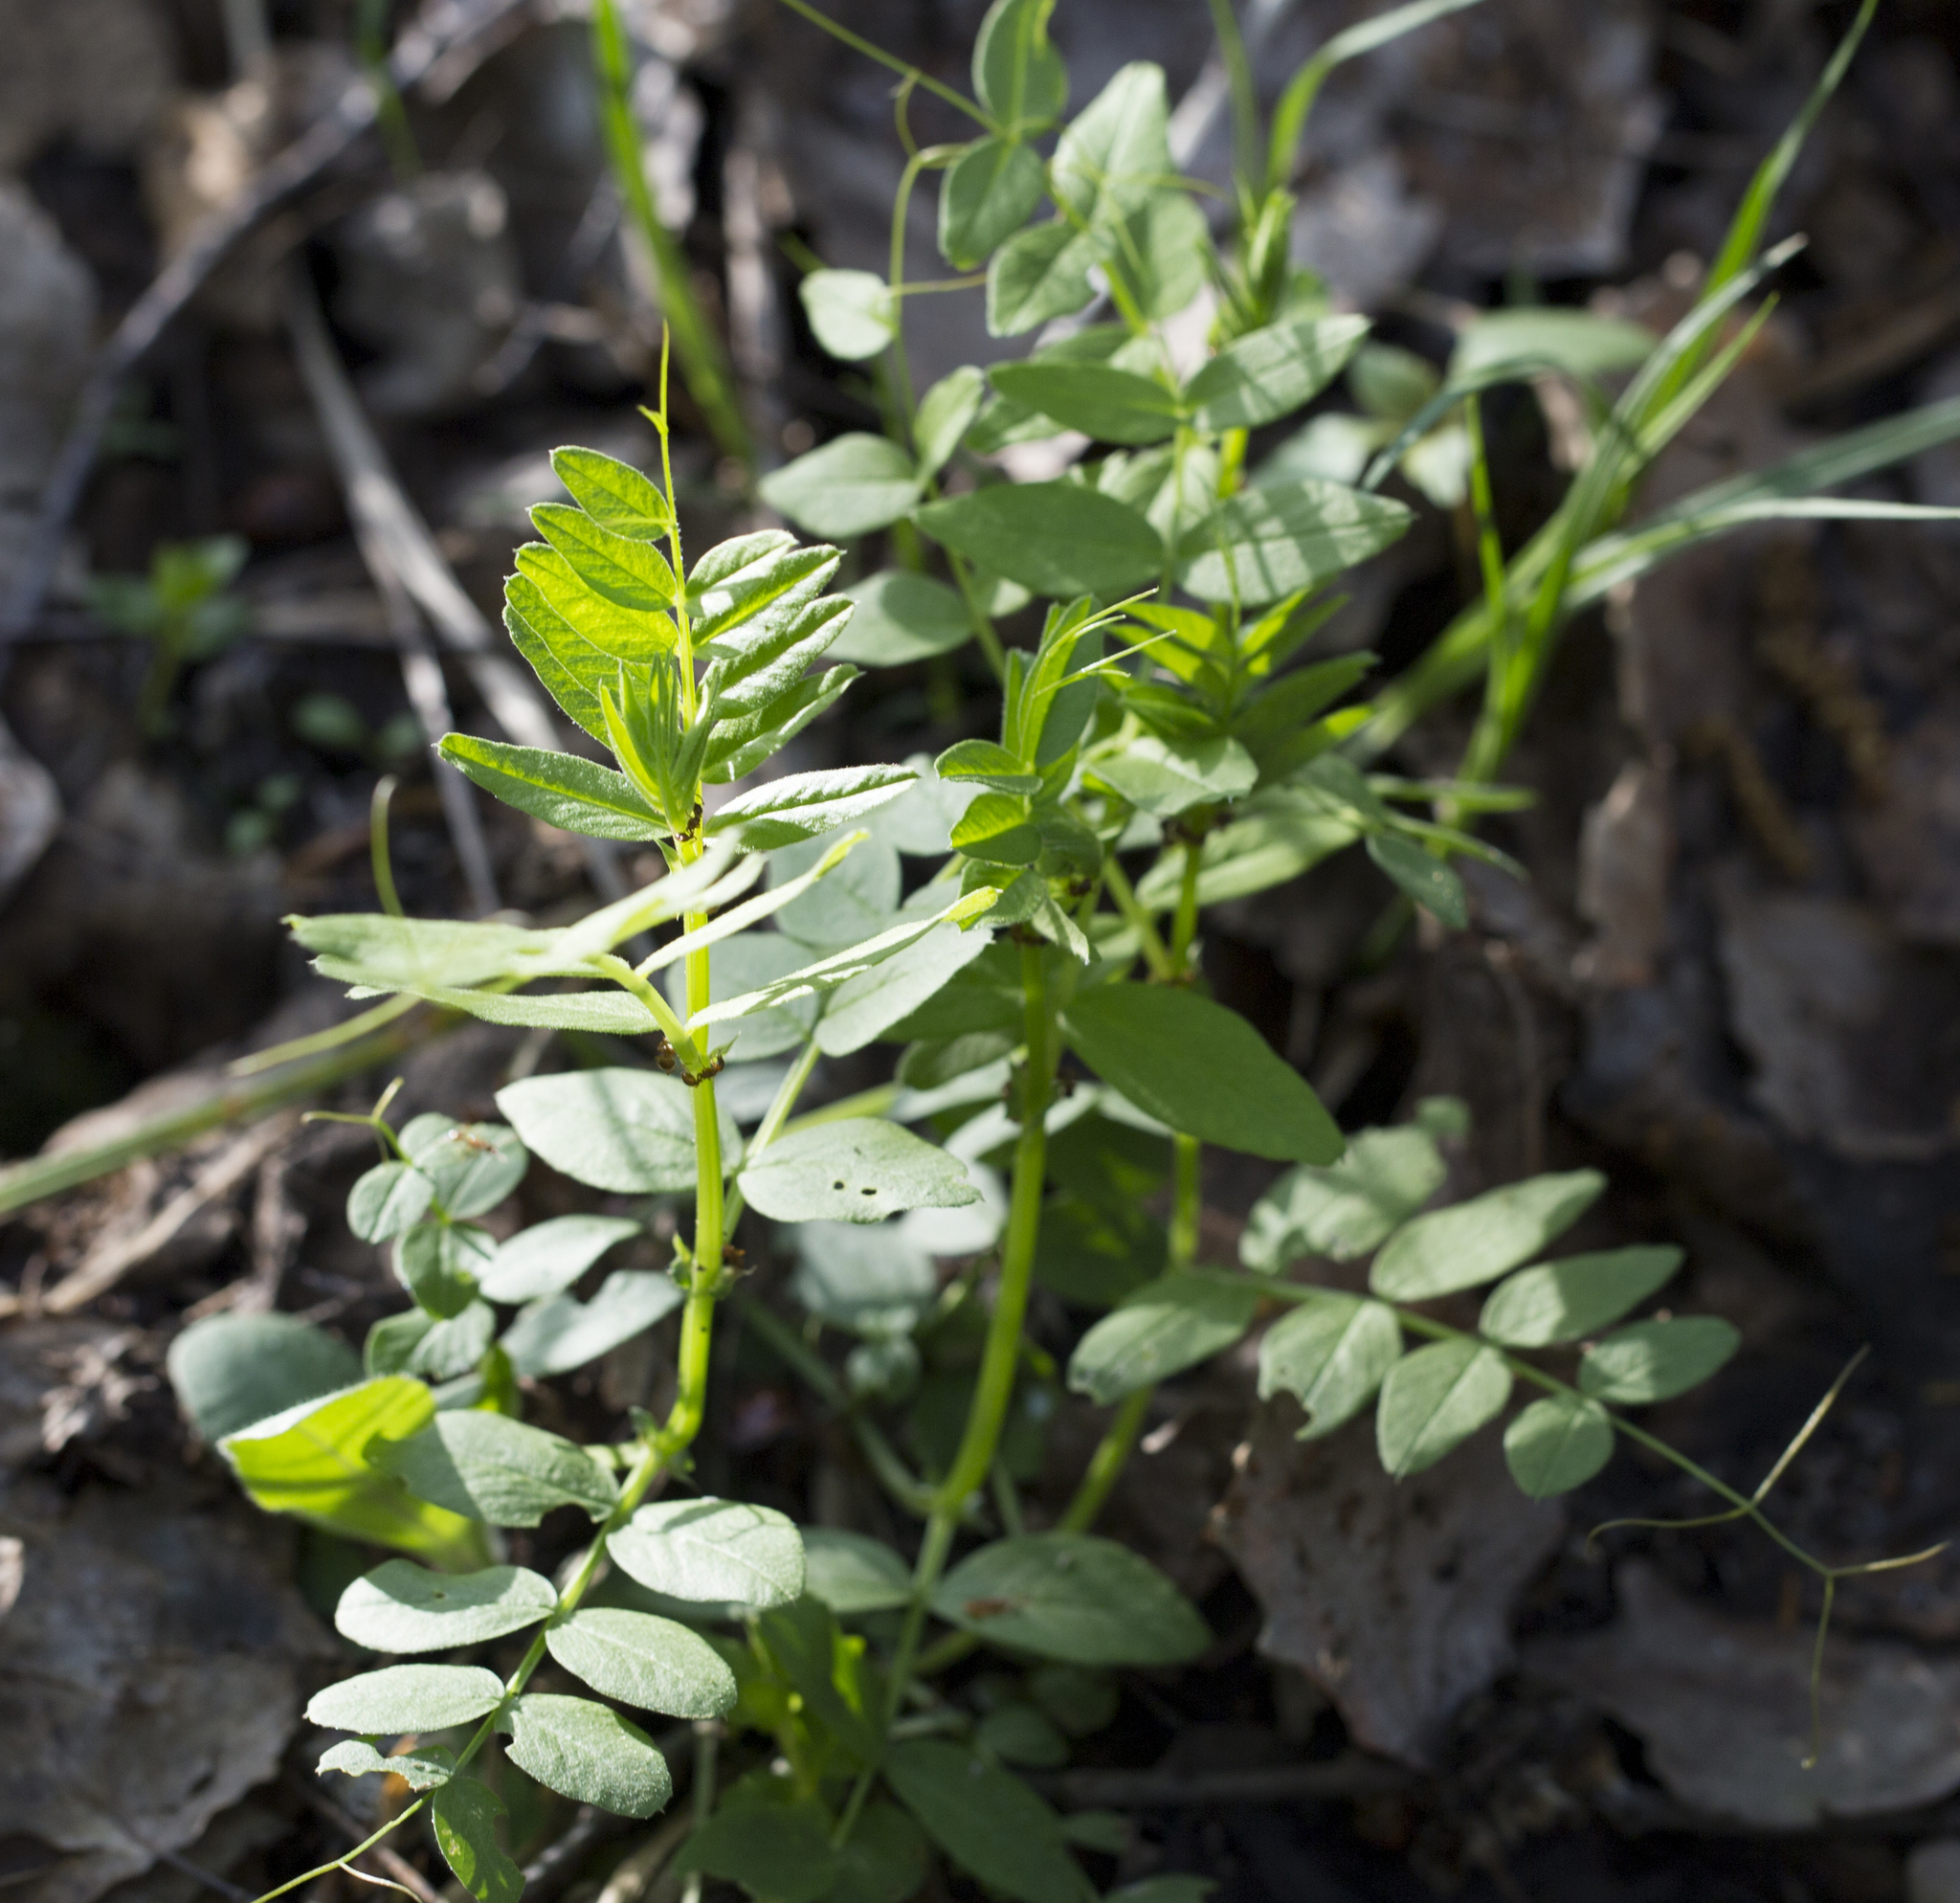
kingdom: Plantae
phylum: Tracheophyta
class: Magnoliopsida
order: Fabales
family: Fabaceae
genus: Vicia
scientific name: Vicia sepium
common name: Bush vetch
